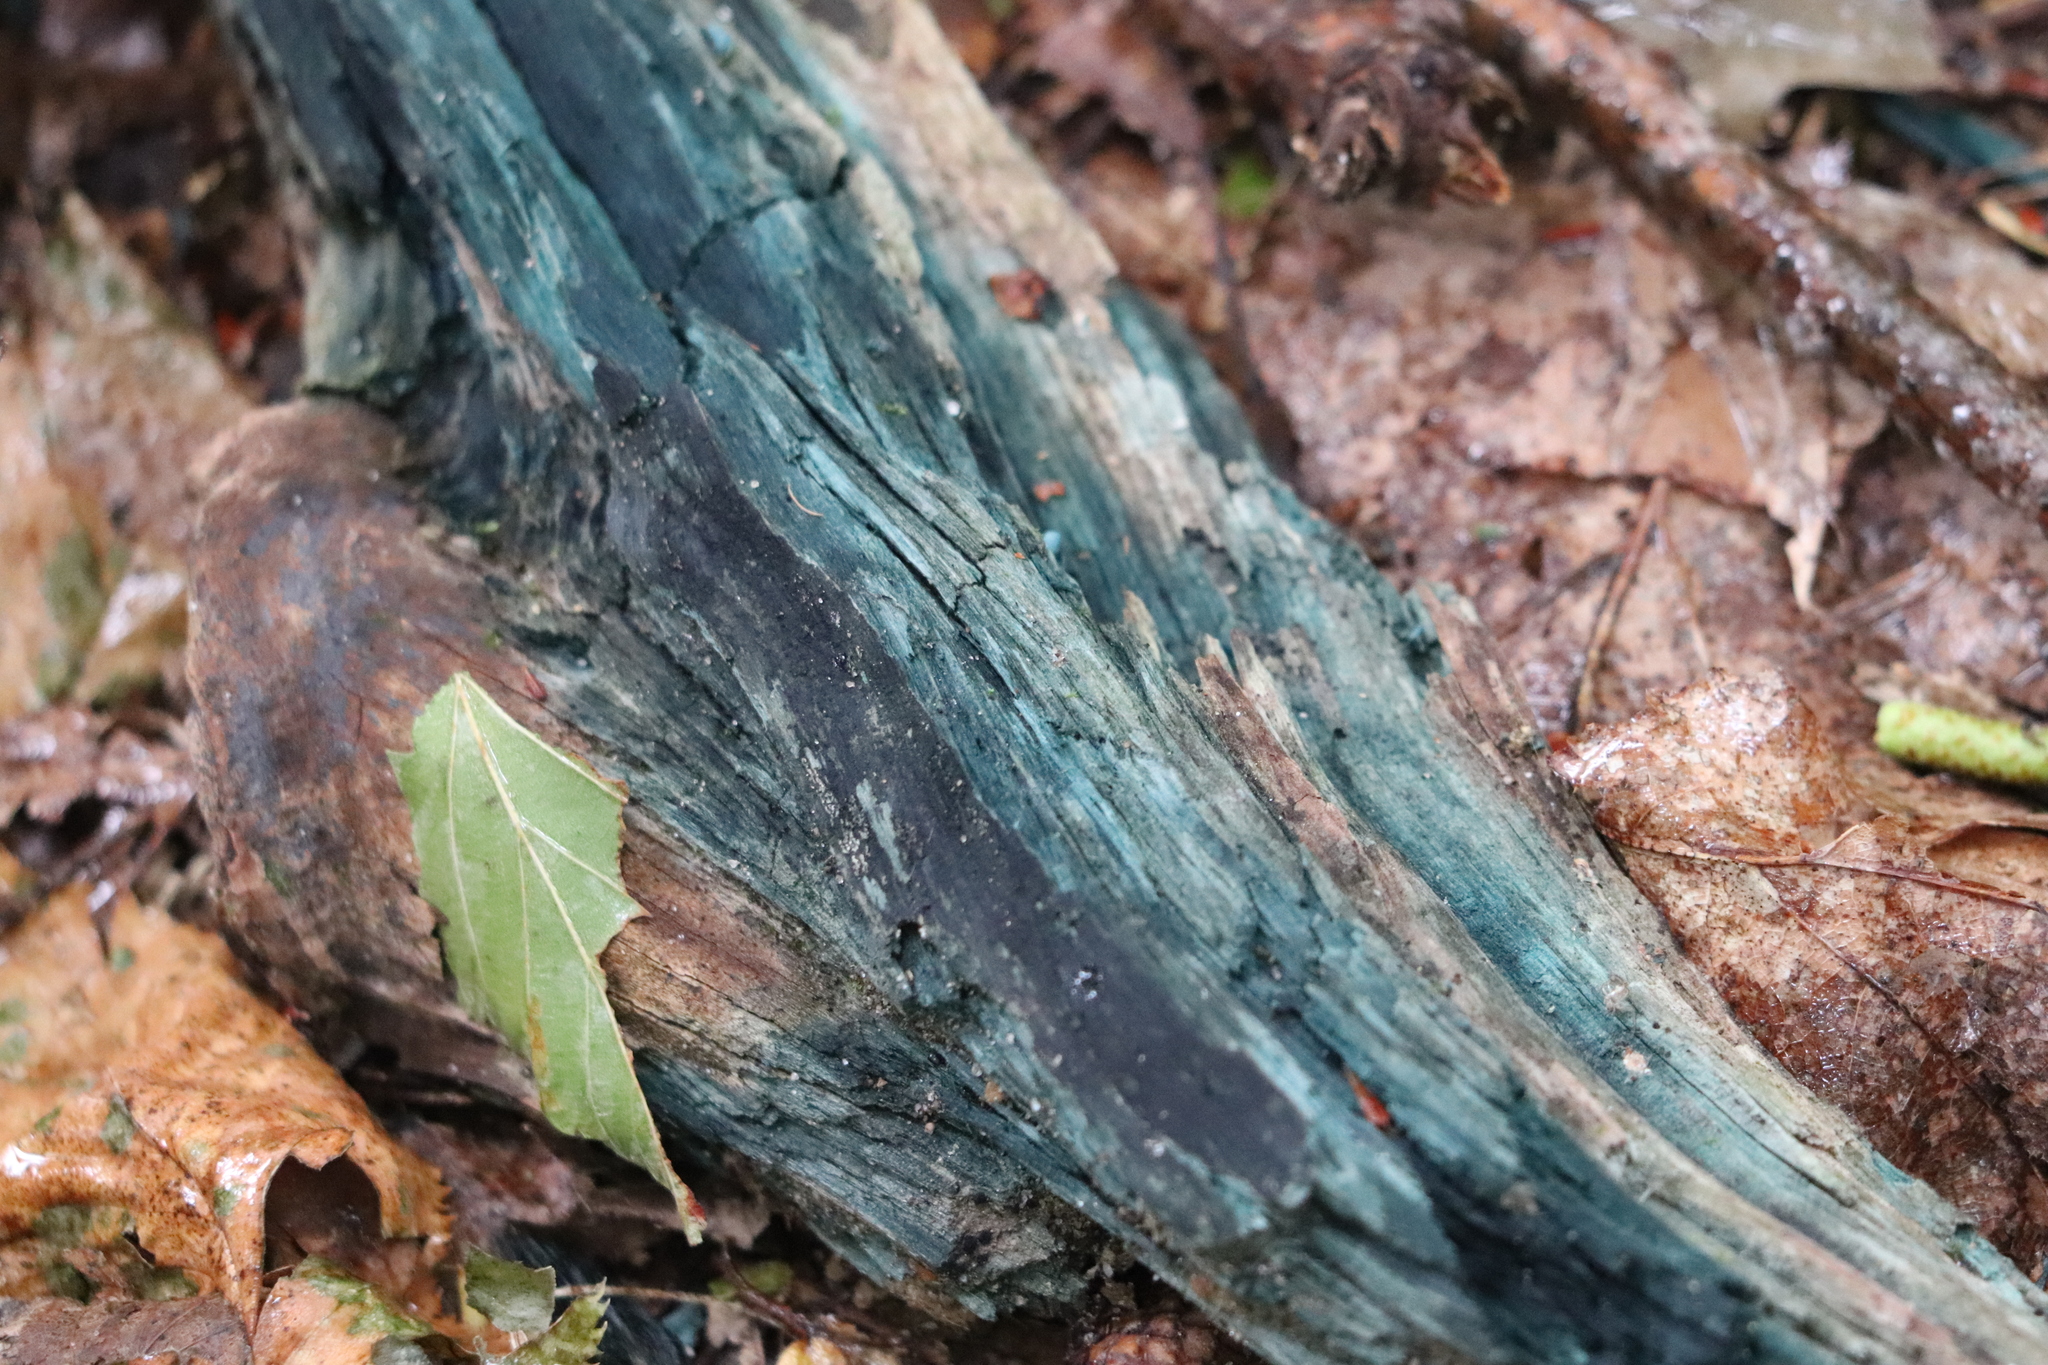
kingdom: Fungi
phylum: Ascomycota
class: Leotiomycetes
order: Helotiales
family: Chlorociboriaceae
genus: Chlorociboria
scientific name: Chlorociboria
